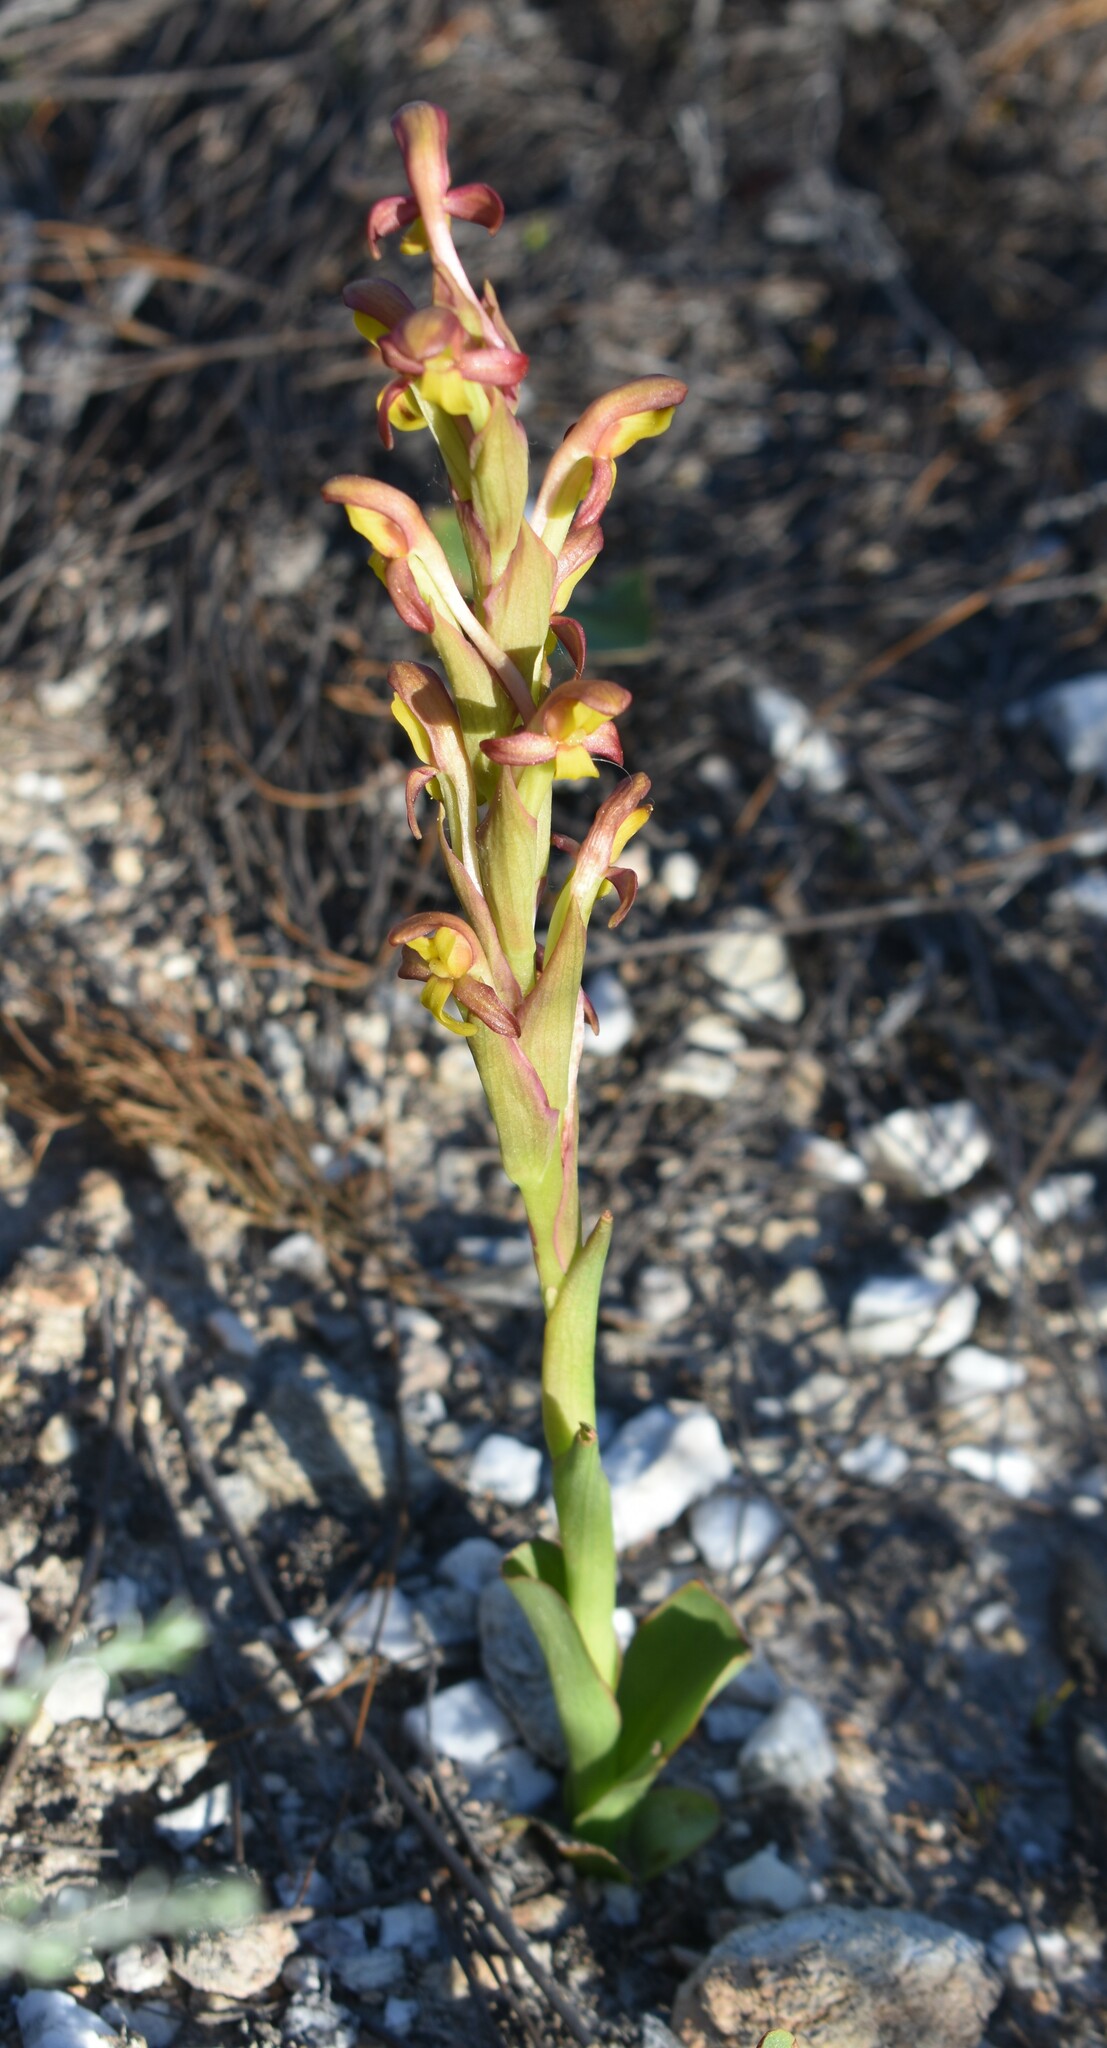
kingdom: Plantae
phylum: Tracheophyta
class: Liliopsida
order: Asparagales
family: Orchidaceae
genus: Disa
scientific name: Disa comosa
